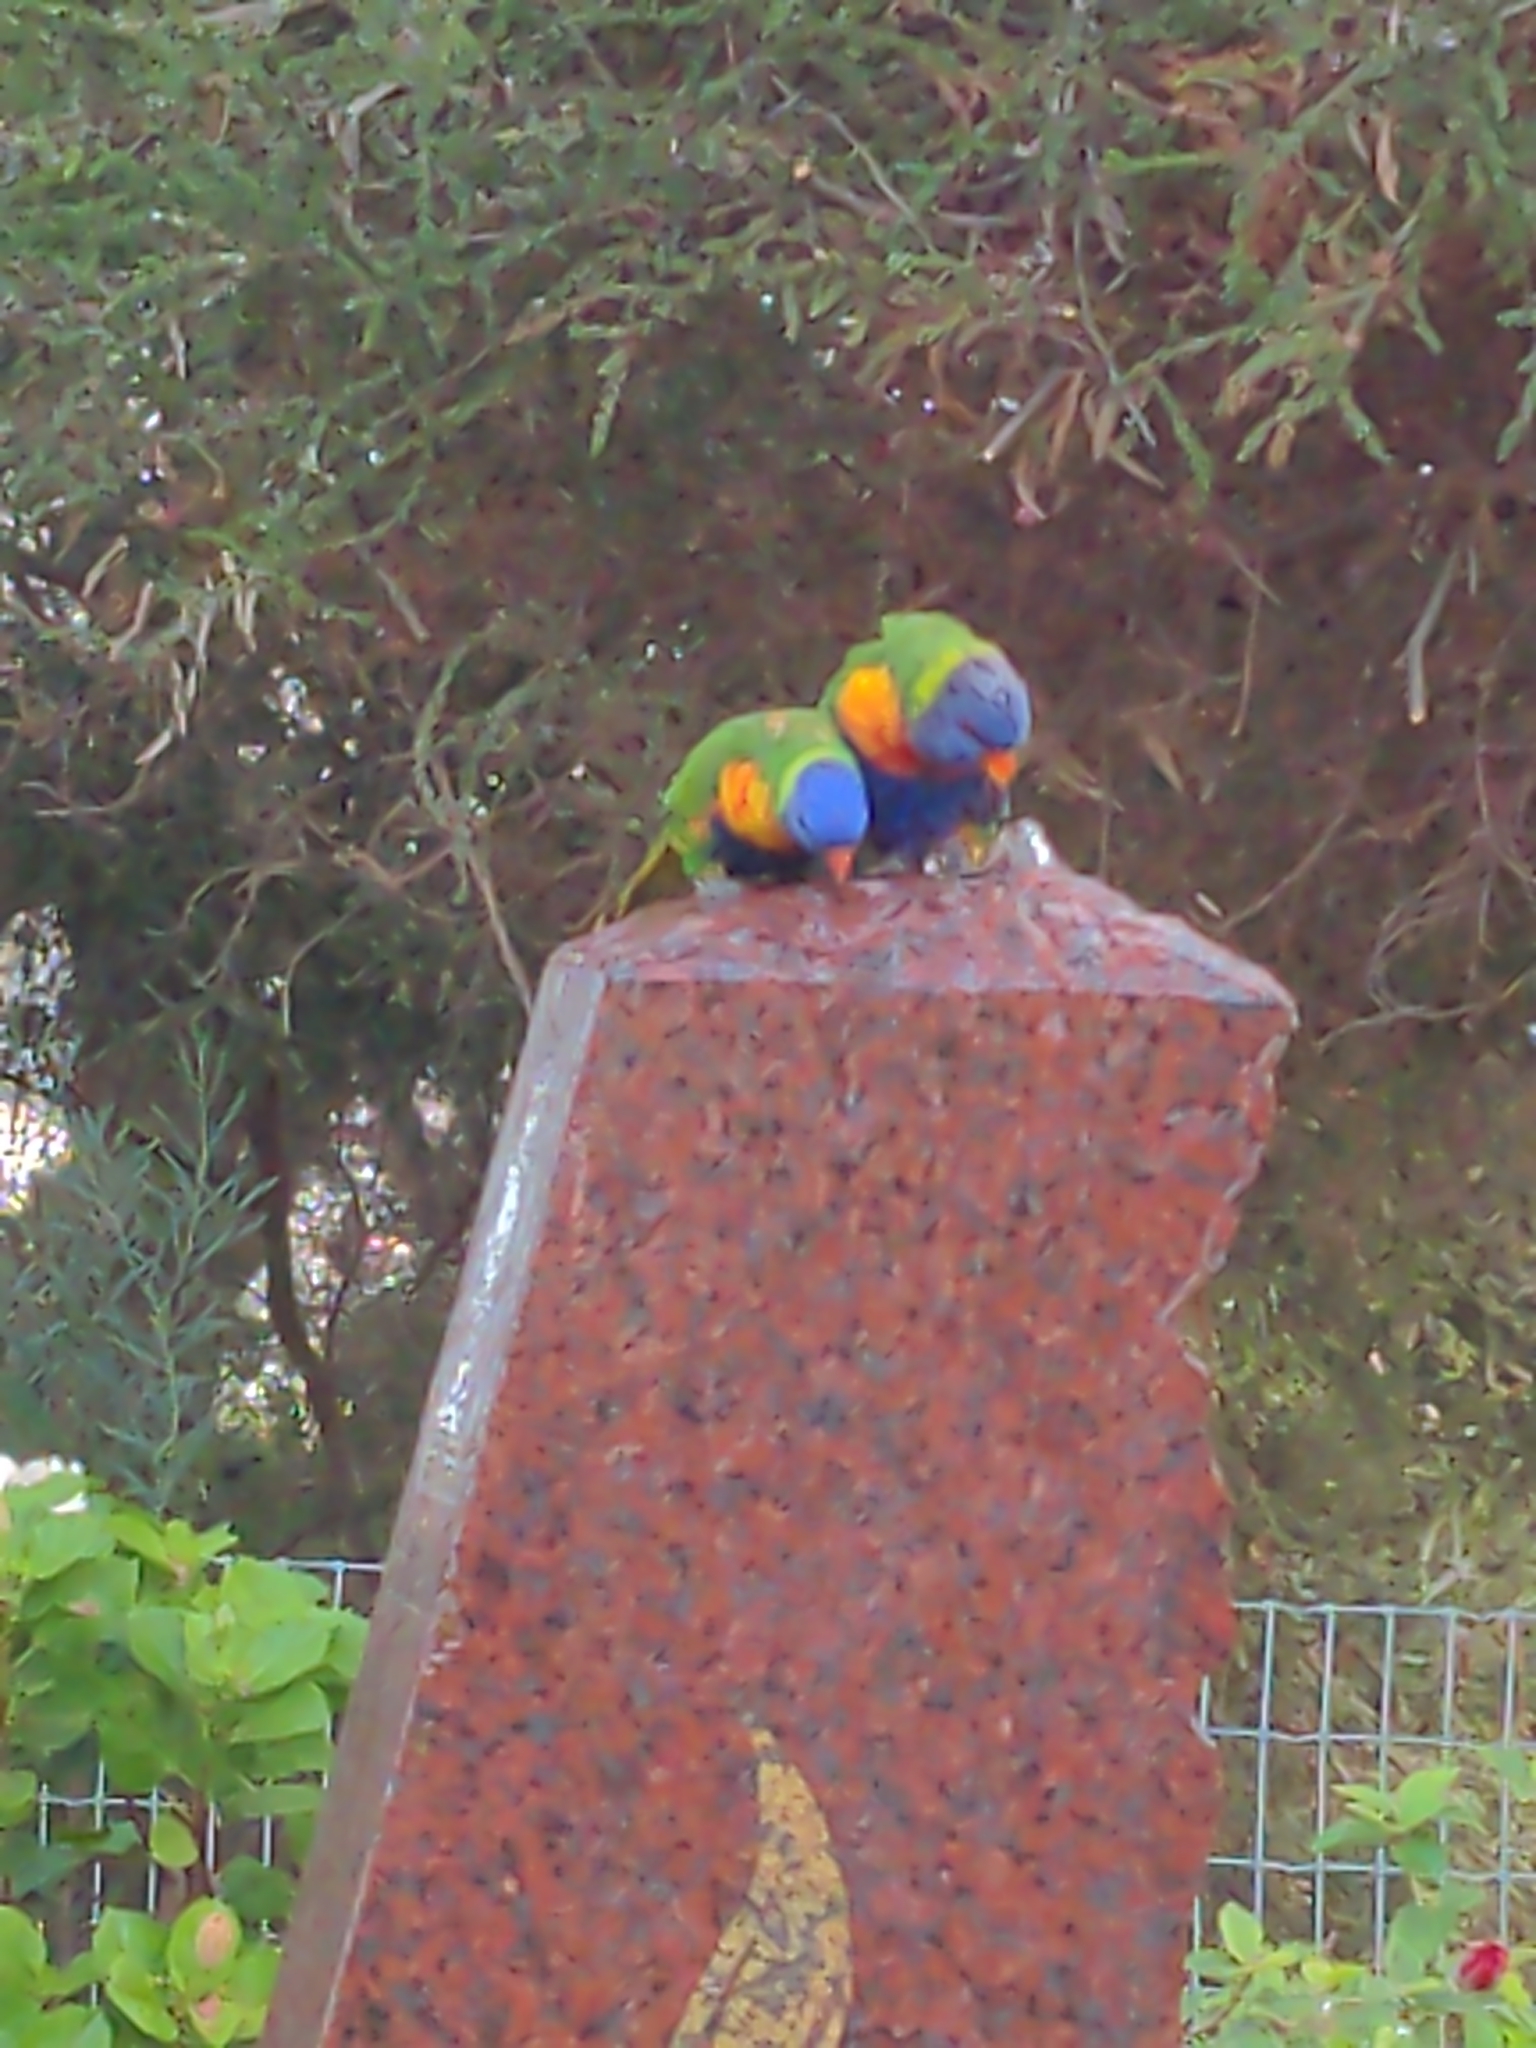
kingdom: Animalia
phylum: Chordata
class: Aves
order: Psittaciformes
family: Psittacidae
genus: Trichoglossus
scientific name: Trichoglossus haematodus
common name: Coconut lorikeet
